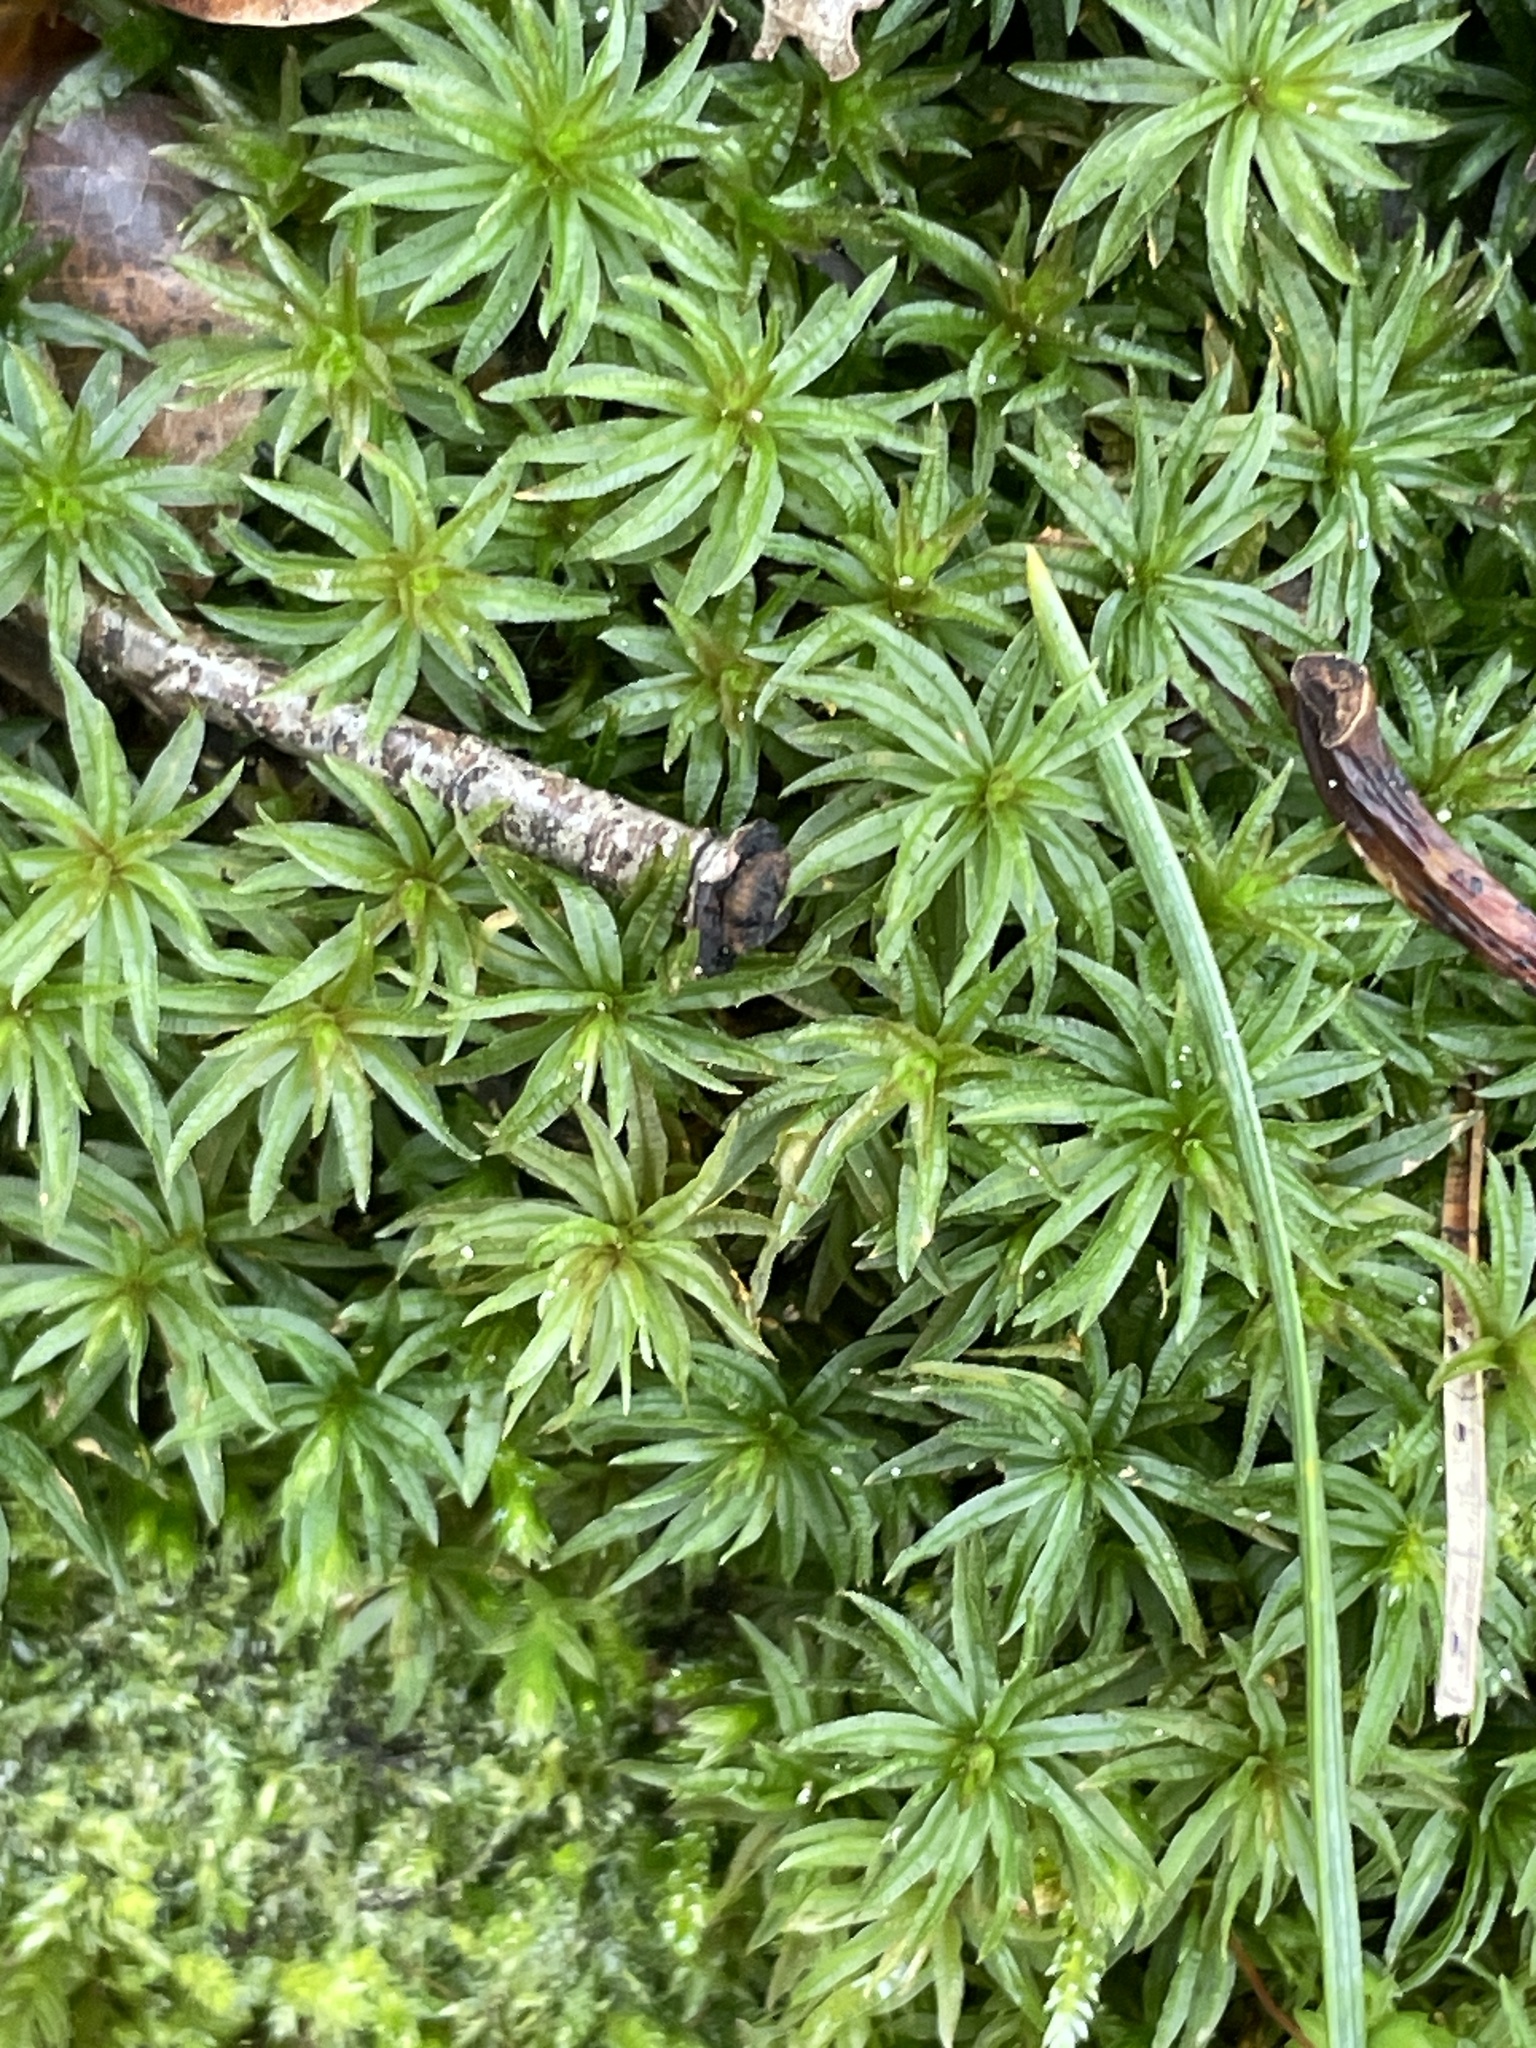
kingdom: Plantae
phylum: Bryophyta
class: Polytrichopsida
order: Polytrichales
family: Polytrichaceae
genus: Atrichum
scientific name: Atrichum undulatum
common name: Common smoothcap
